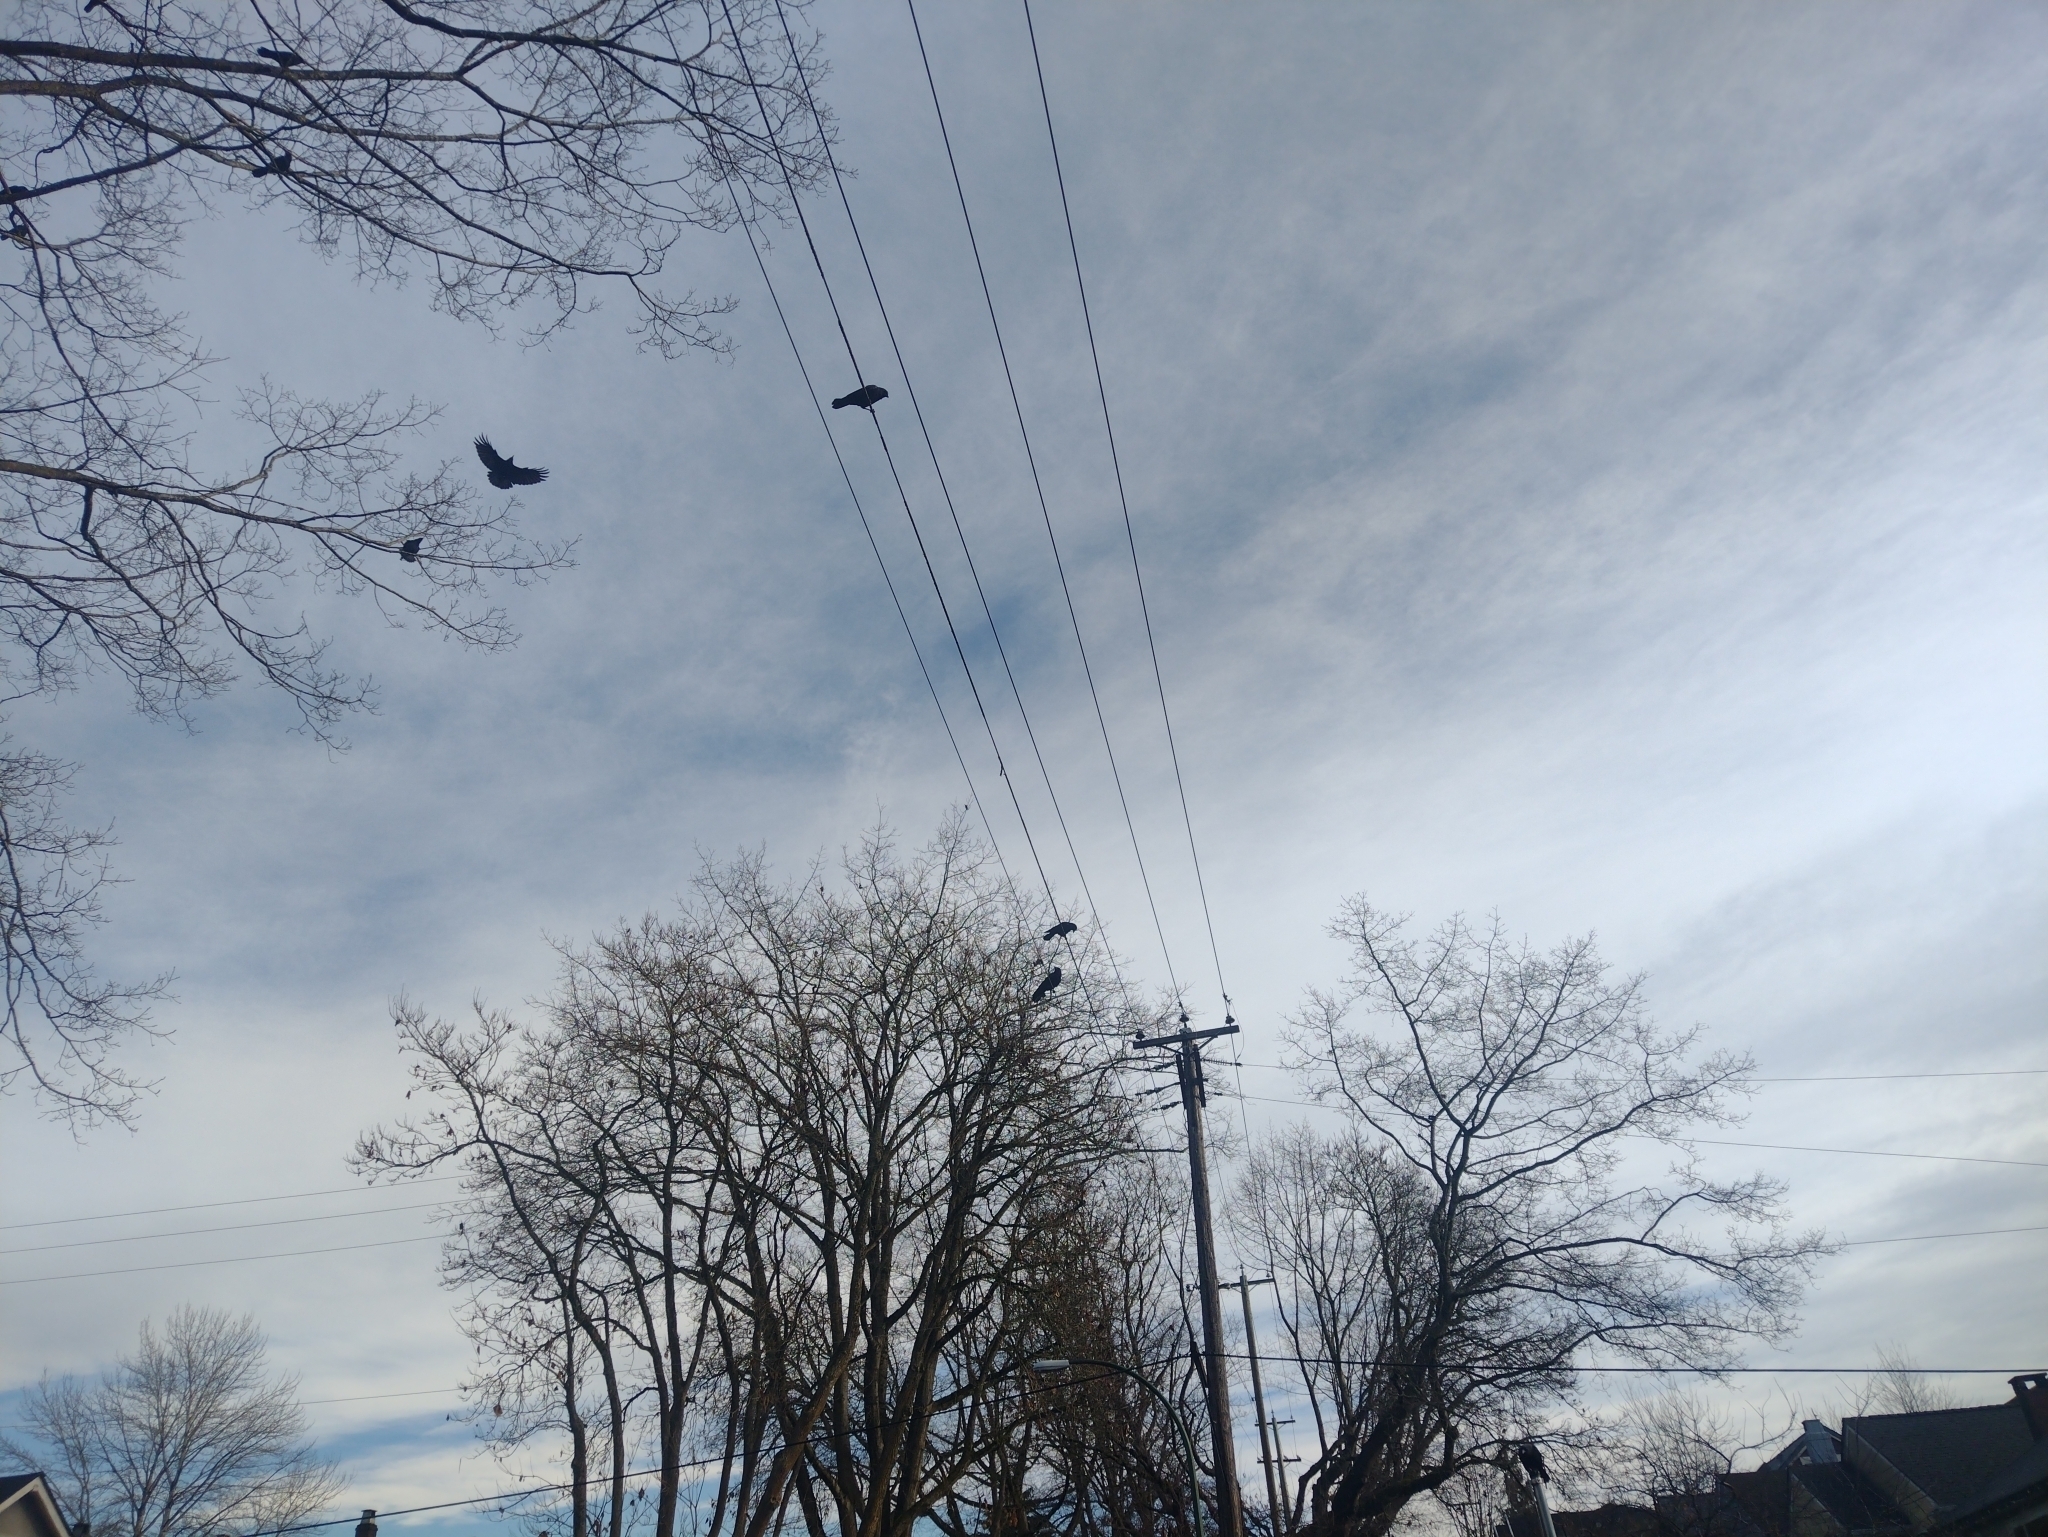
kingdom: Animalia
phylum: Chordata
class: Aves
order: Passeriformes
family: Corvidae
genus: Corvus
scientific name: Corvus brachyrhynchos
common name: American crow
